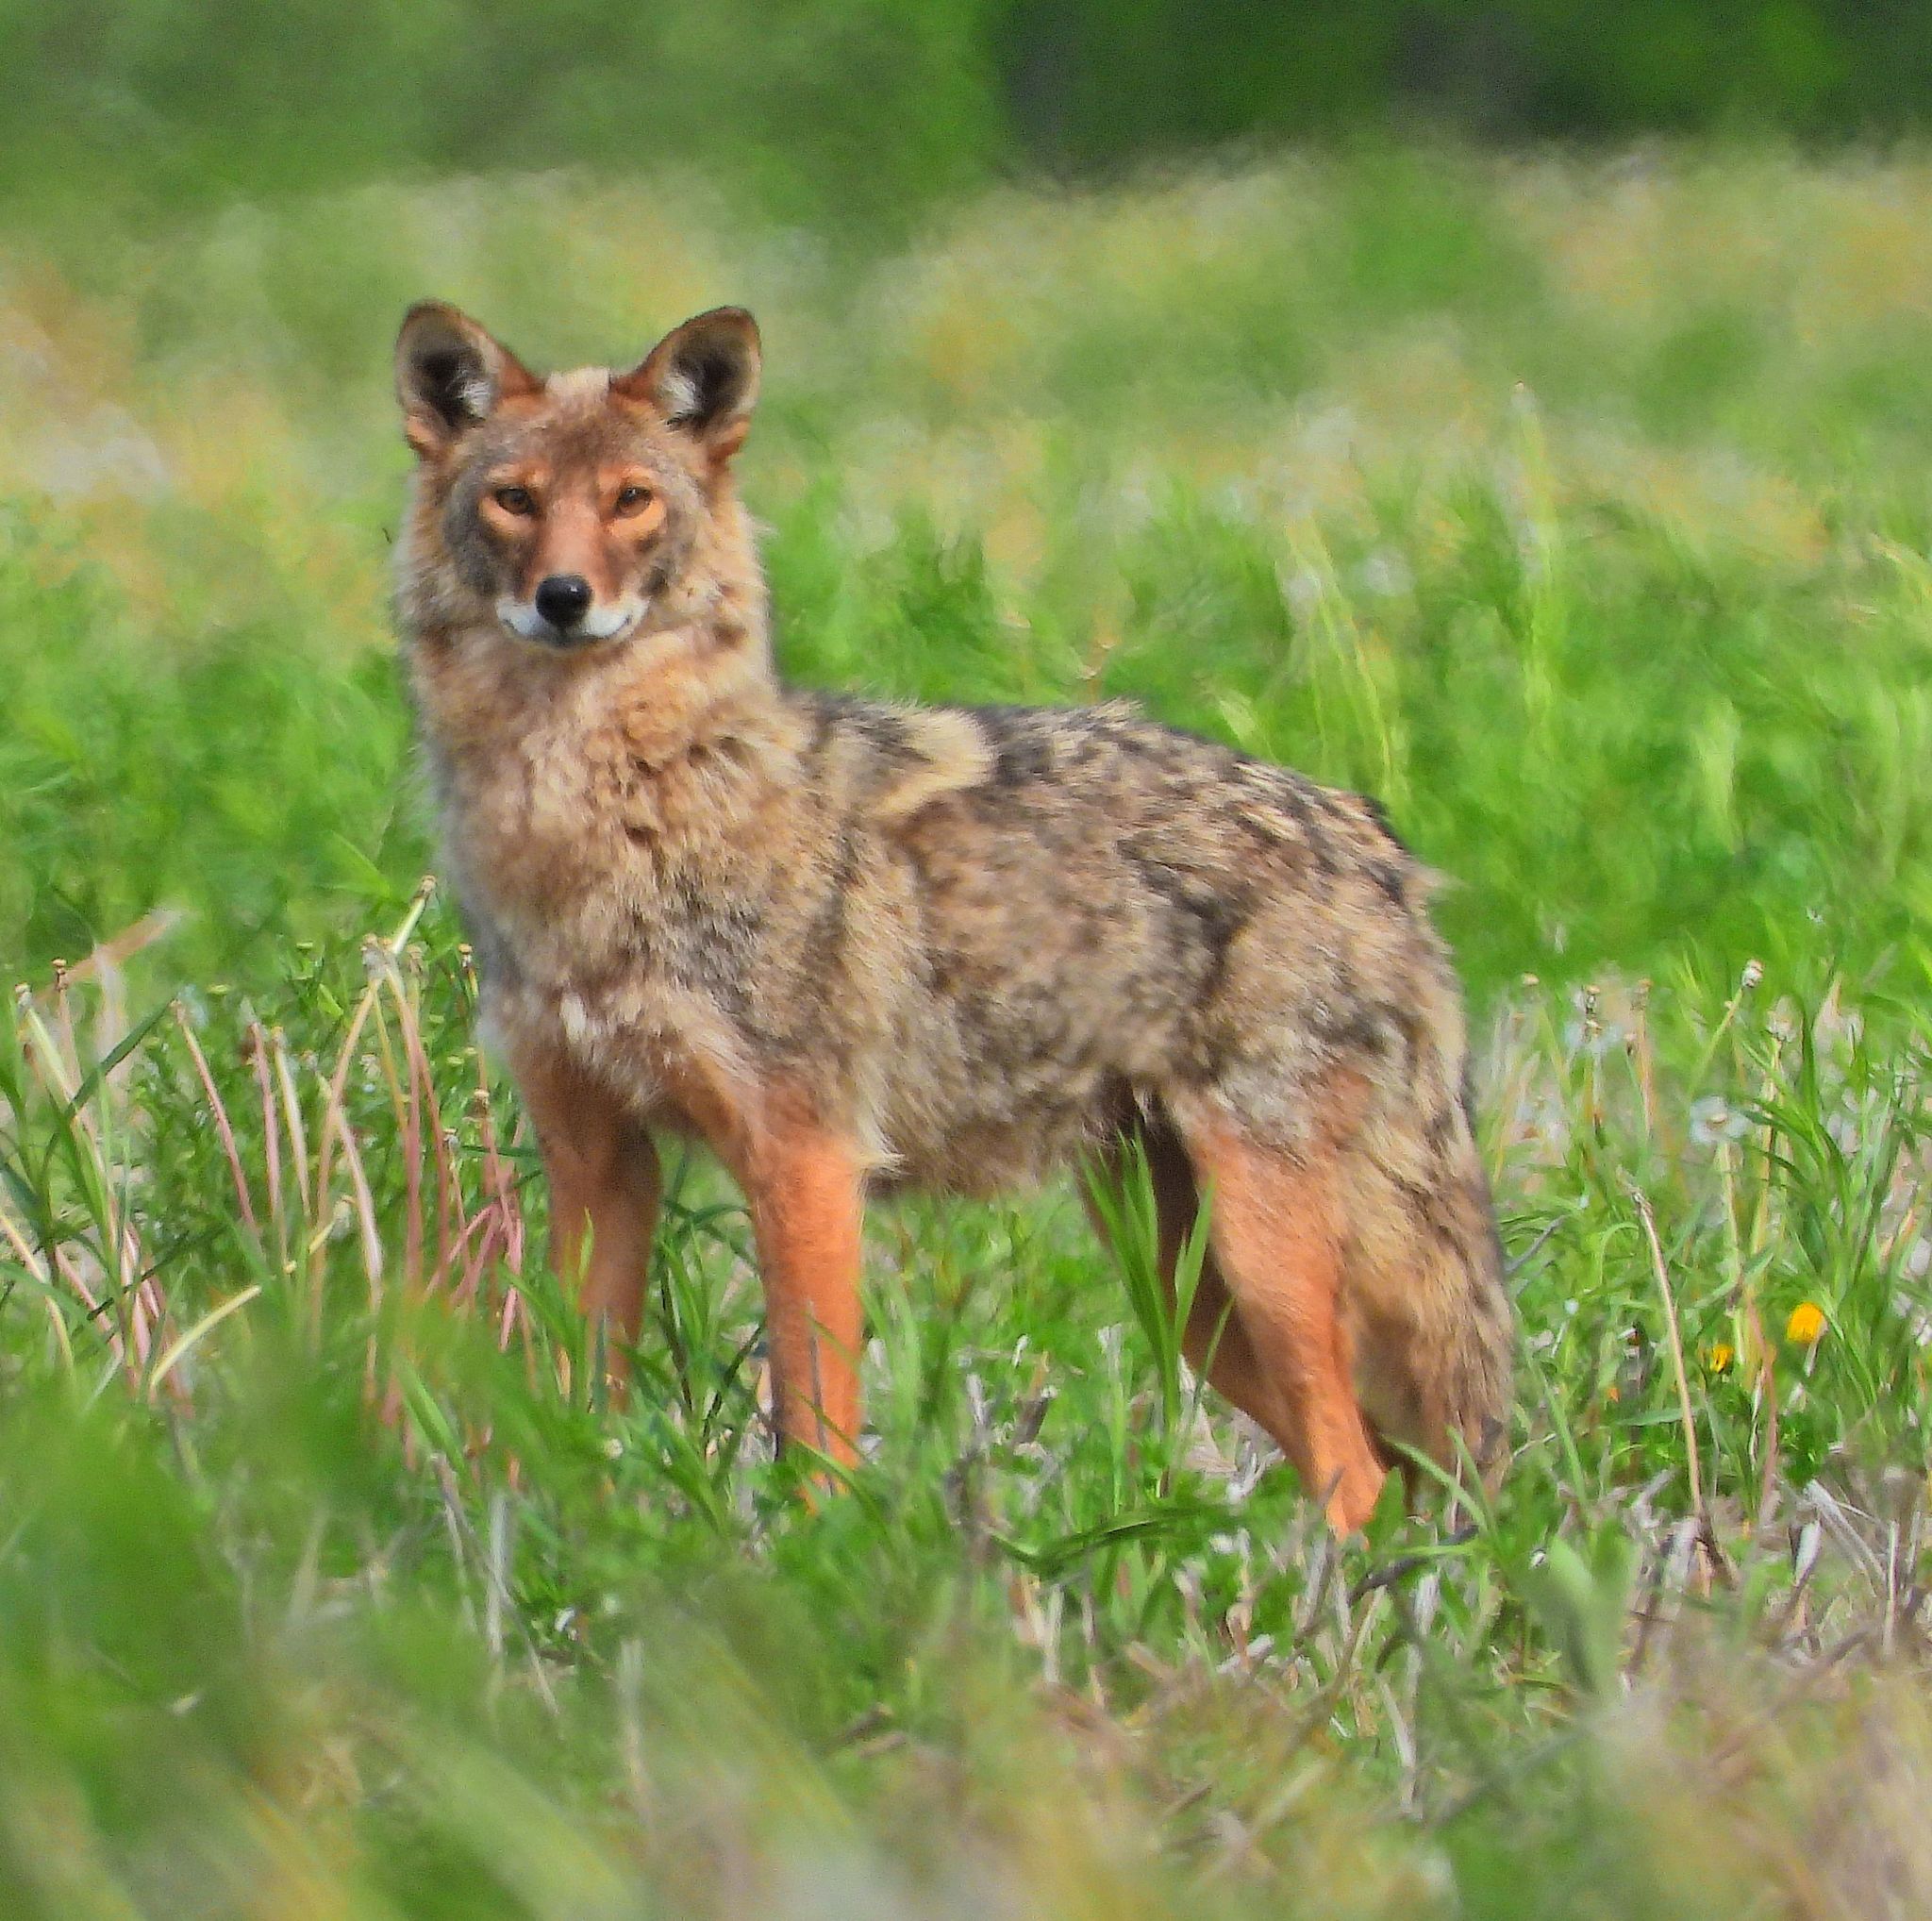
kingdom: Animalia
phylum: Chordata
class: Mammalia
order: Carnivora
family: Canidae
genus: Canis
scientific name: Canis latrans
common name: Coyote
